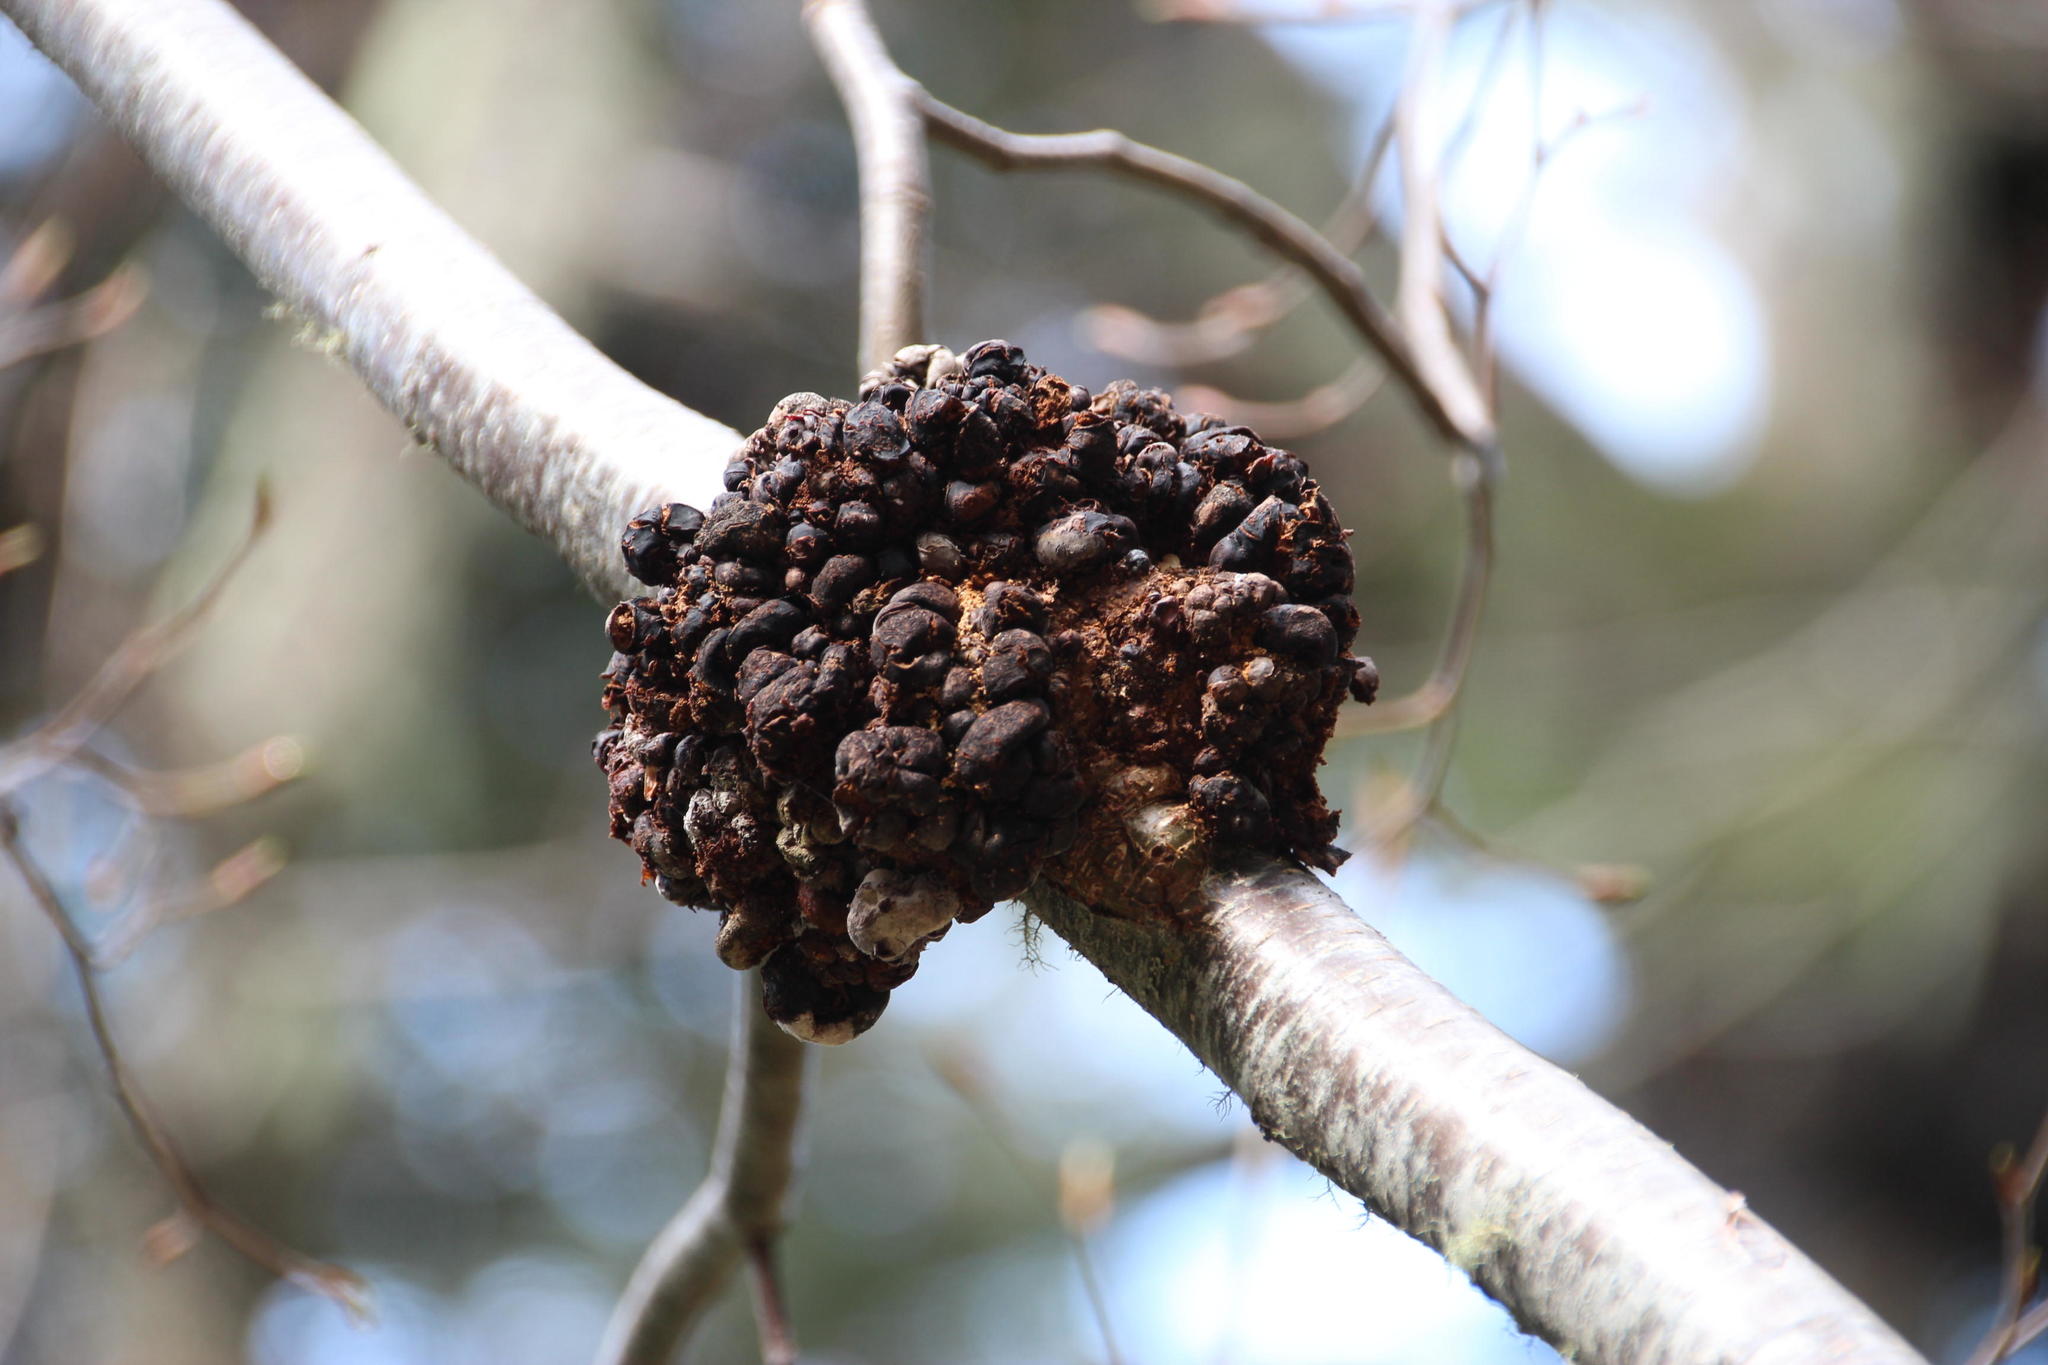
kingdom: Fungi
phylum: Ascomycota
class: Leotiomycetes
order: Cyttariales
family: Cyttariaceae
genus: Cyttaria
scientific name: Cyttaria
